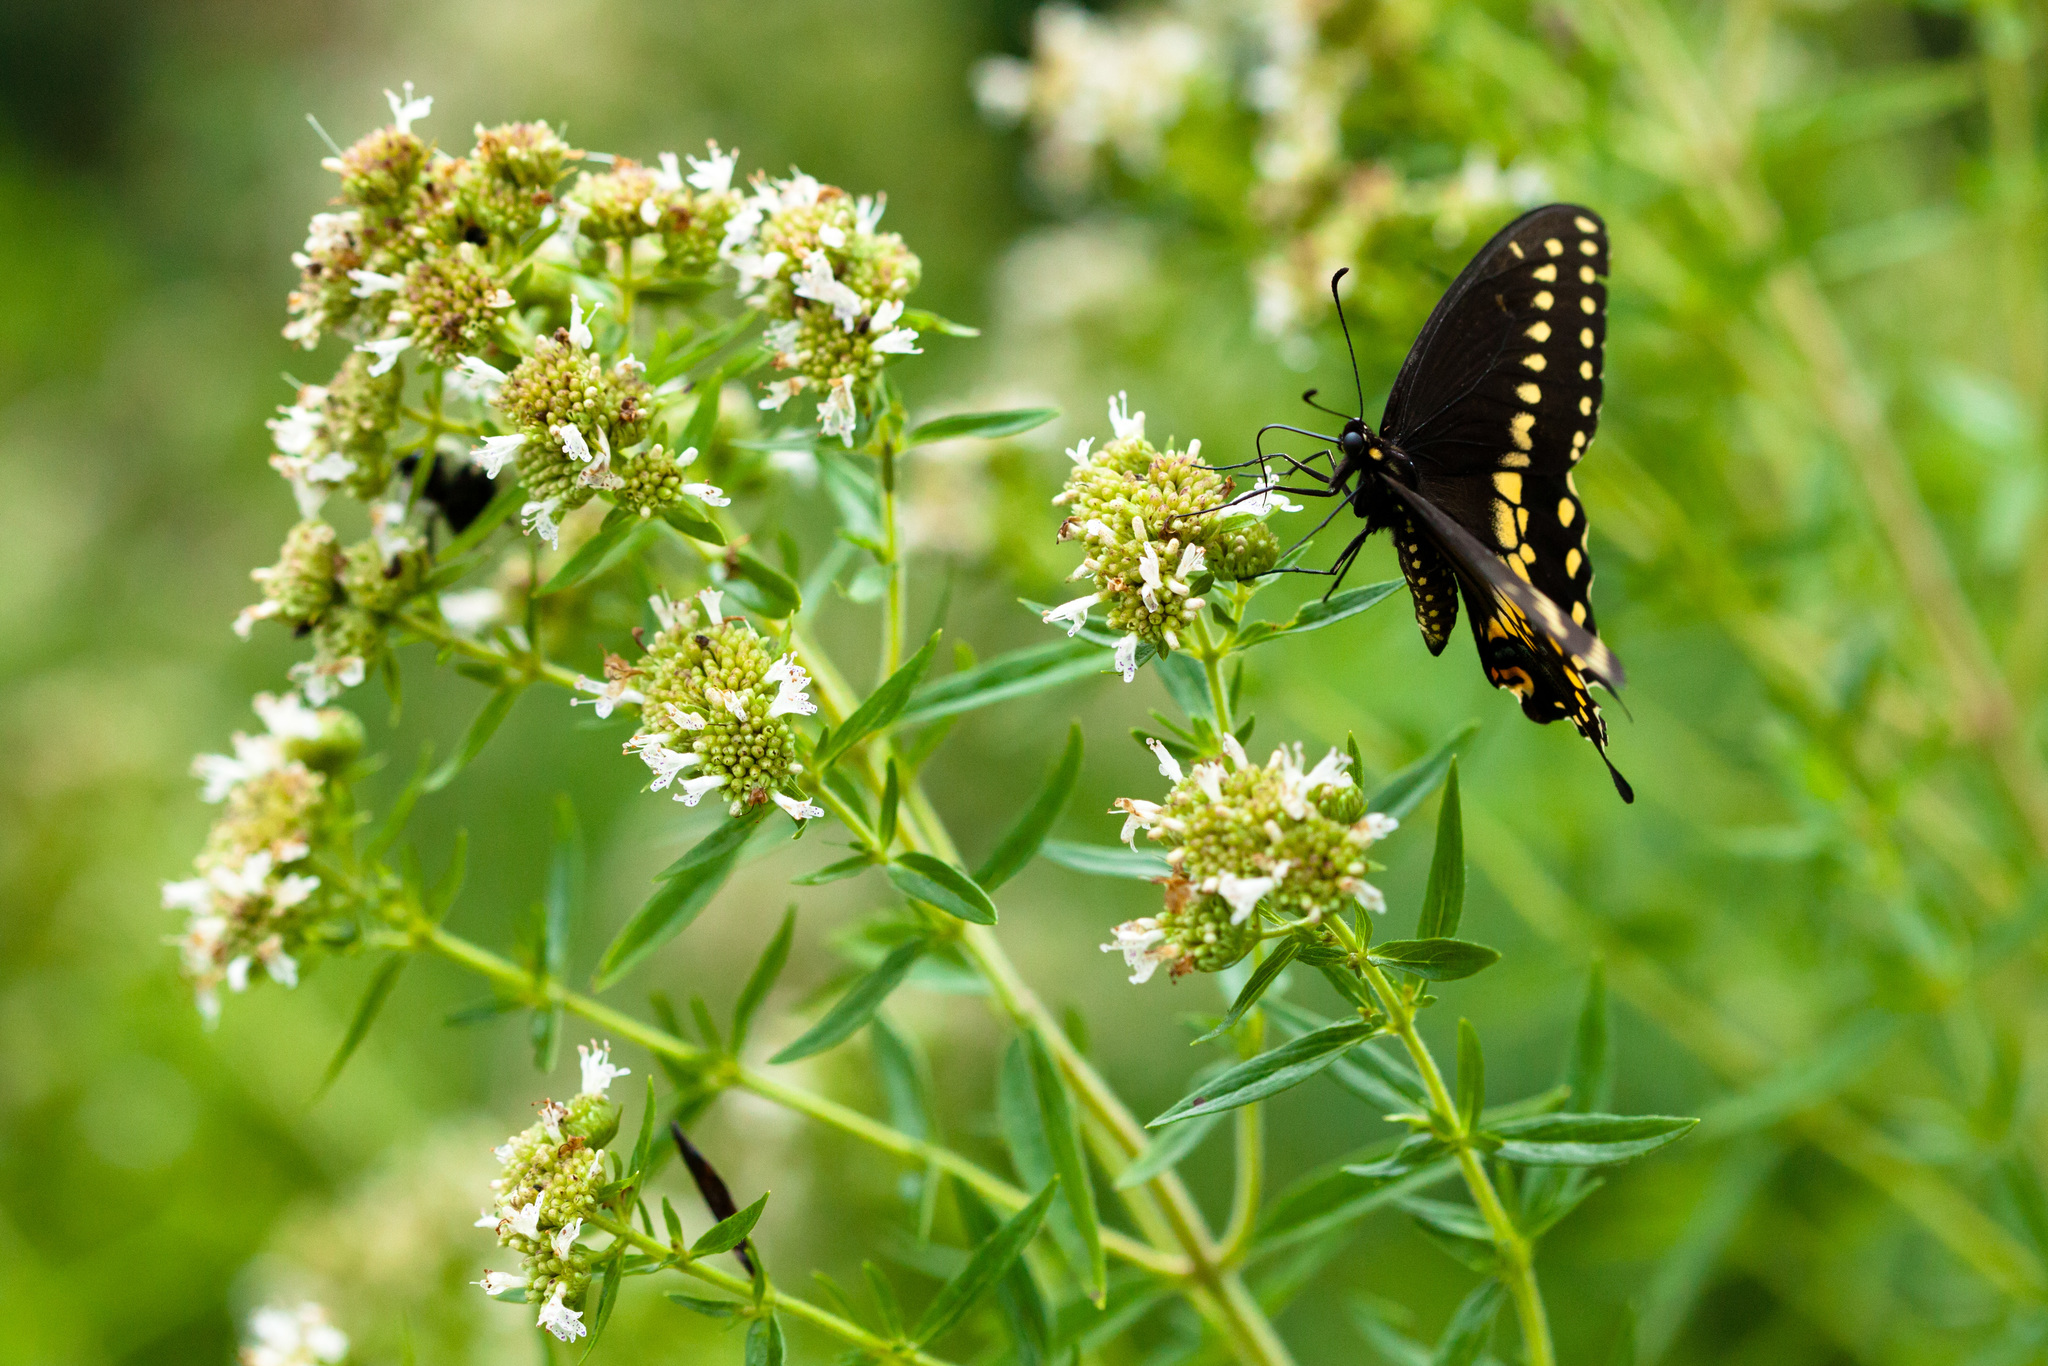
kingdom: Animalia
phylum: Arthropoda
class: Insecta
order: Lepidoptera
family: Papilionidae
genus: Papilio
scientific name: Papilio polyxenes
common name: Black swallowtail
